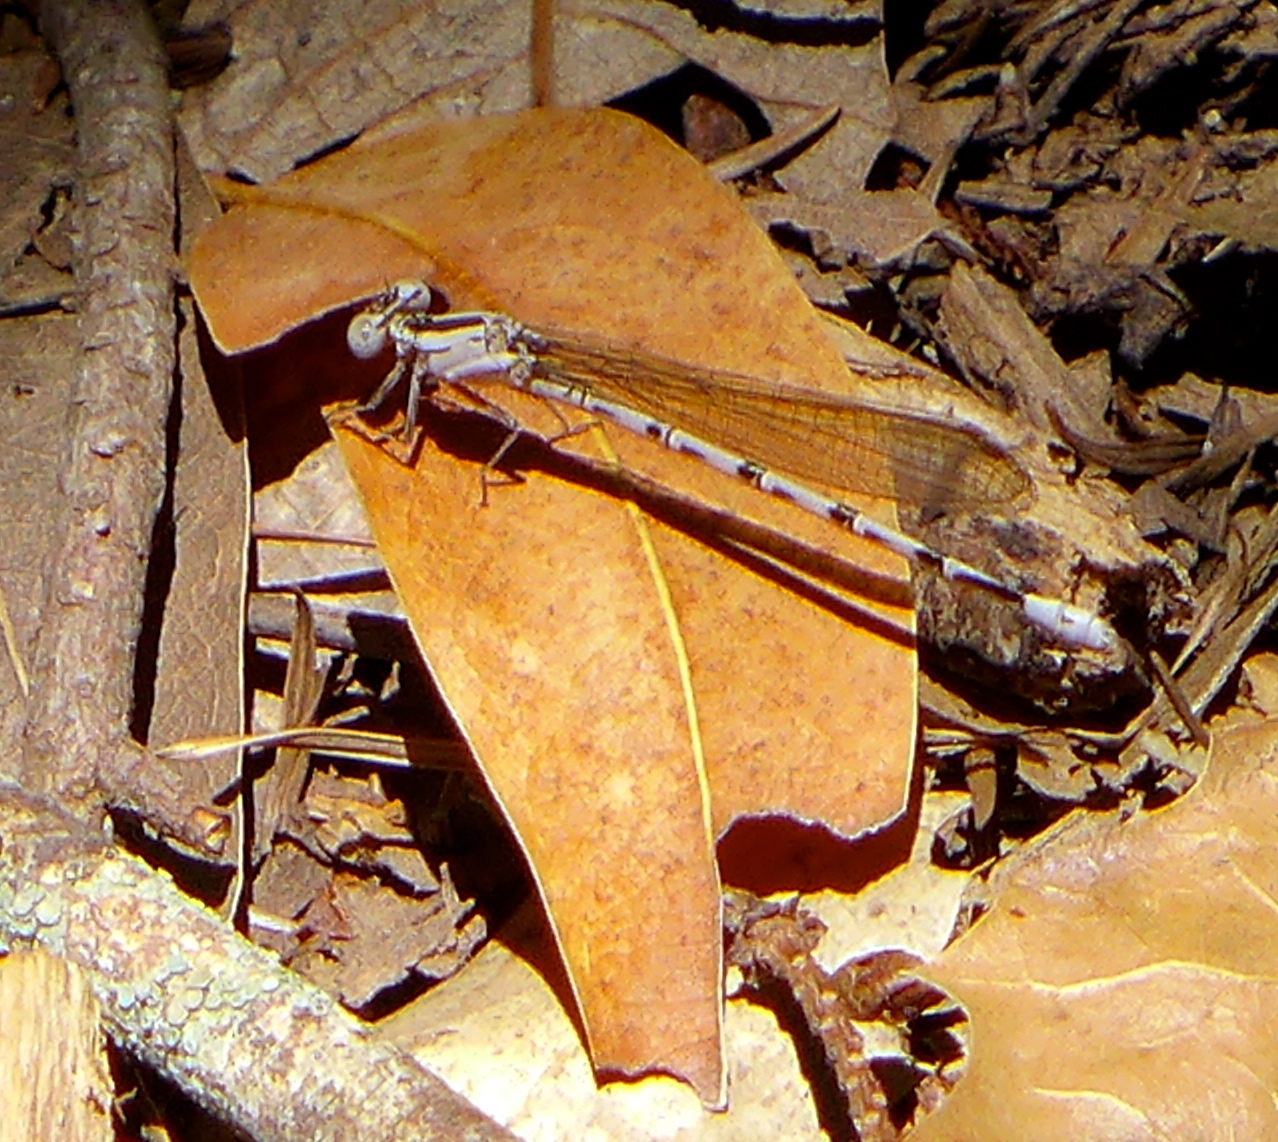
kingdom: Animalia
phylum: Arthropoda
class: Insecta
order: Odonata
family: Coenagrionidae
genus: Argia
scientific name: Argia vivida
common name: Vivid dancer
